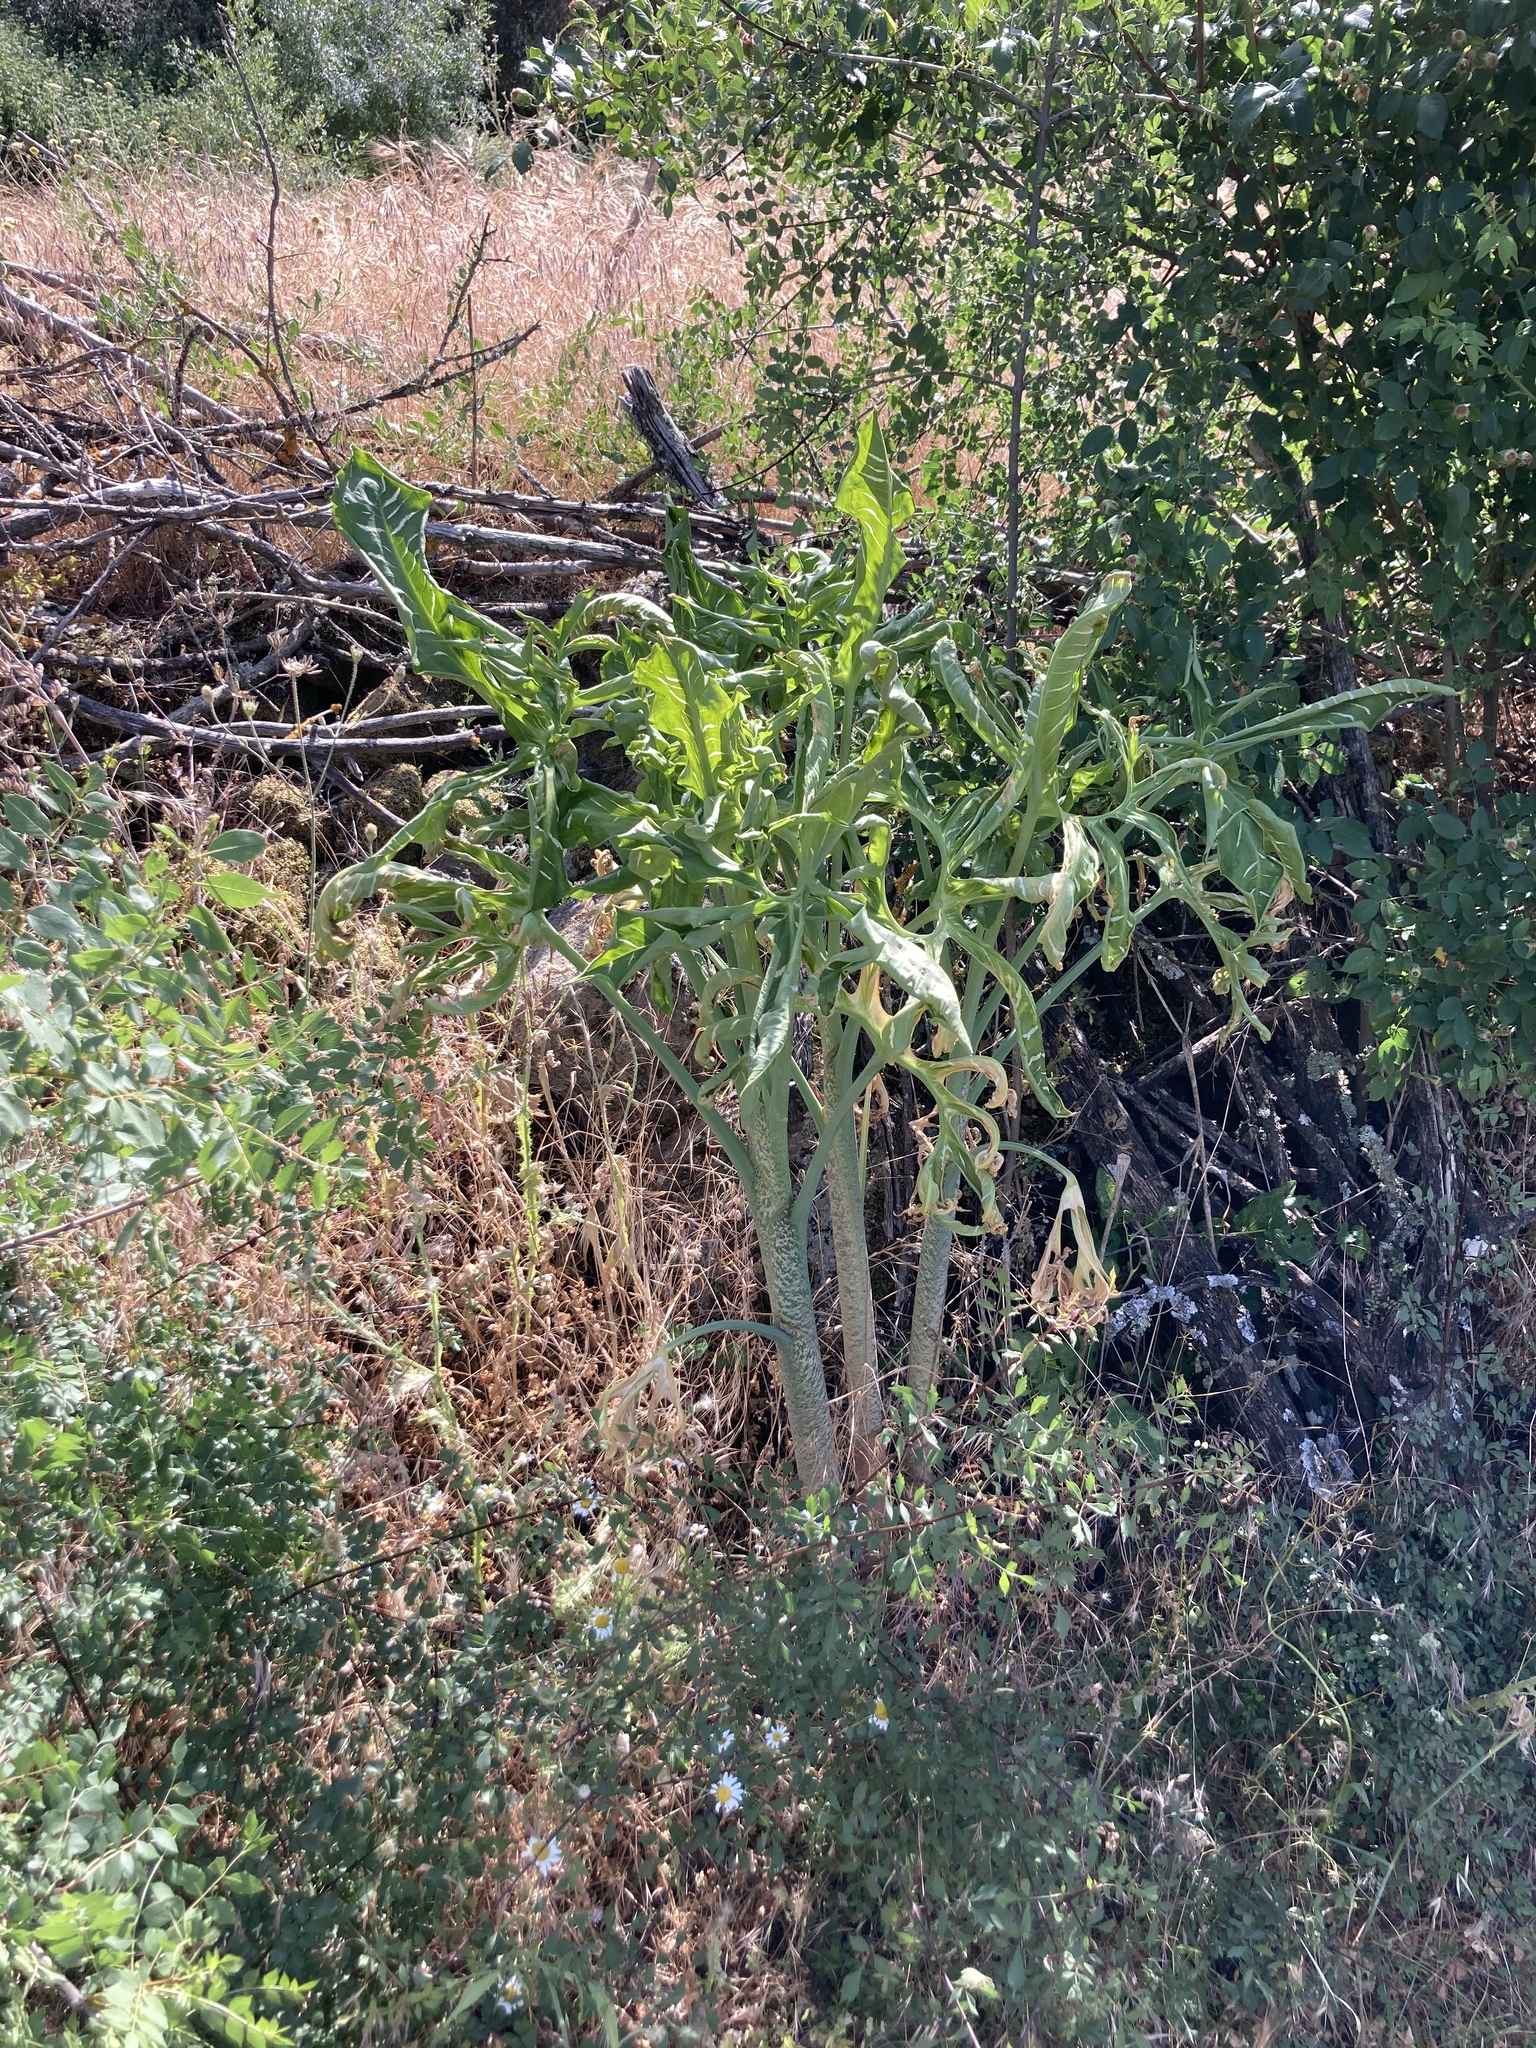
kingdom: Plantae
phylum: Tracheophyta
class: Liliopsida
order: Alismatales
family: Araceae
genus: Dracunculus
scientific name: Dracunculus vulgaris
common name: Dragon arum
